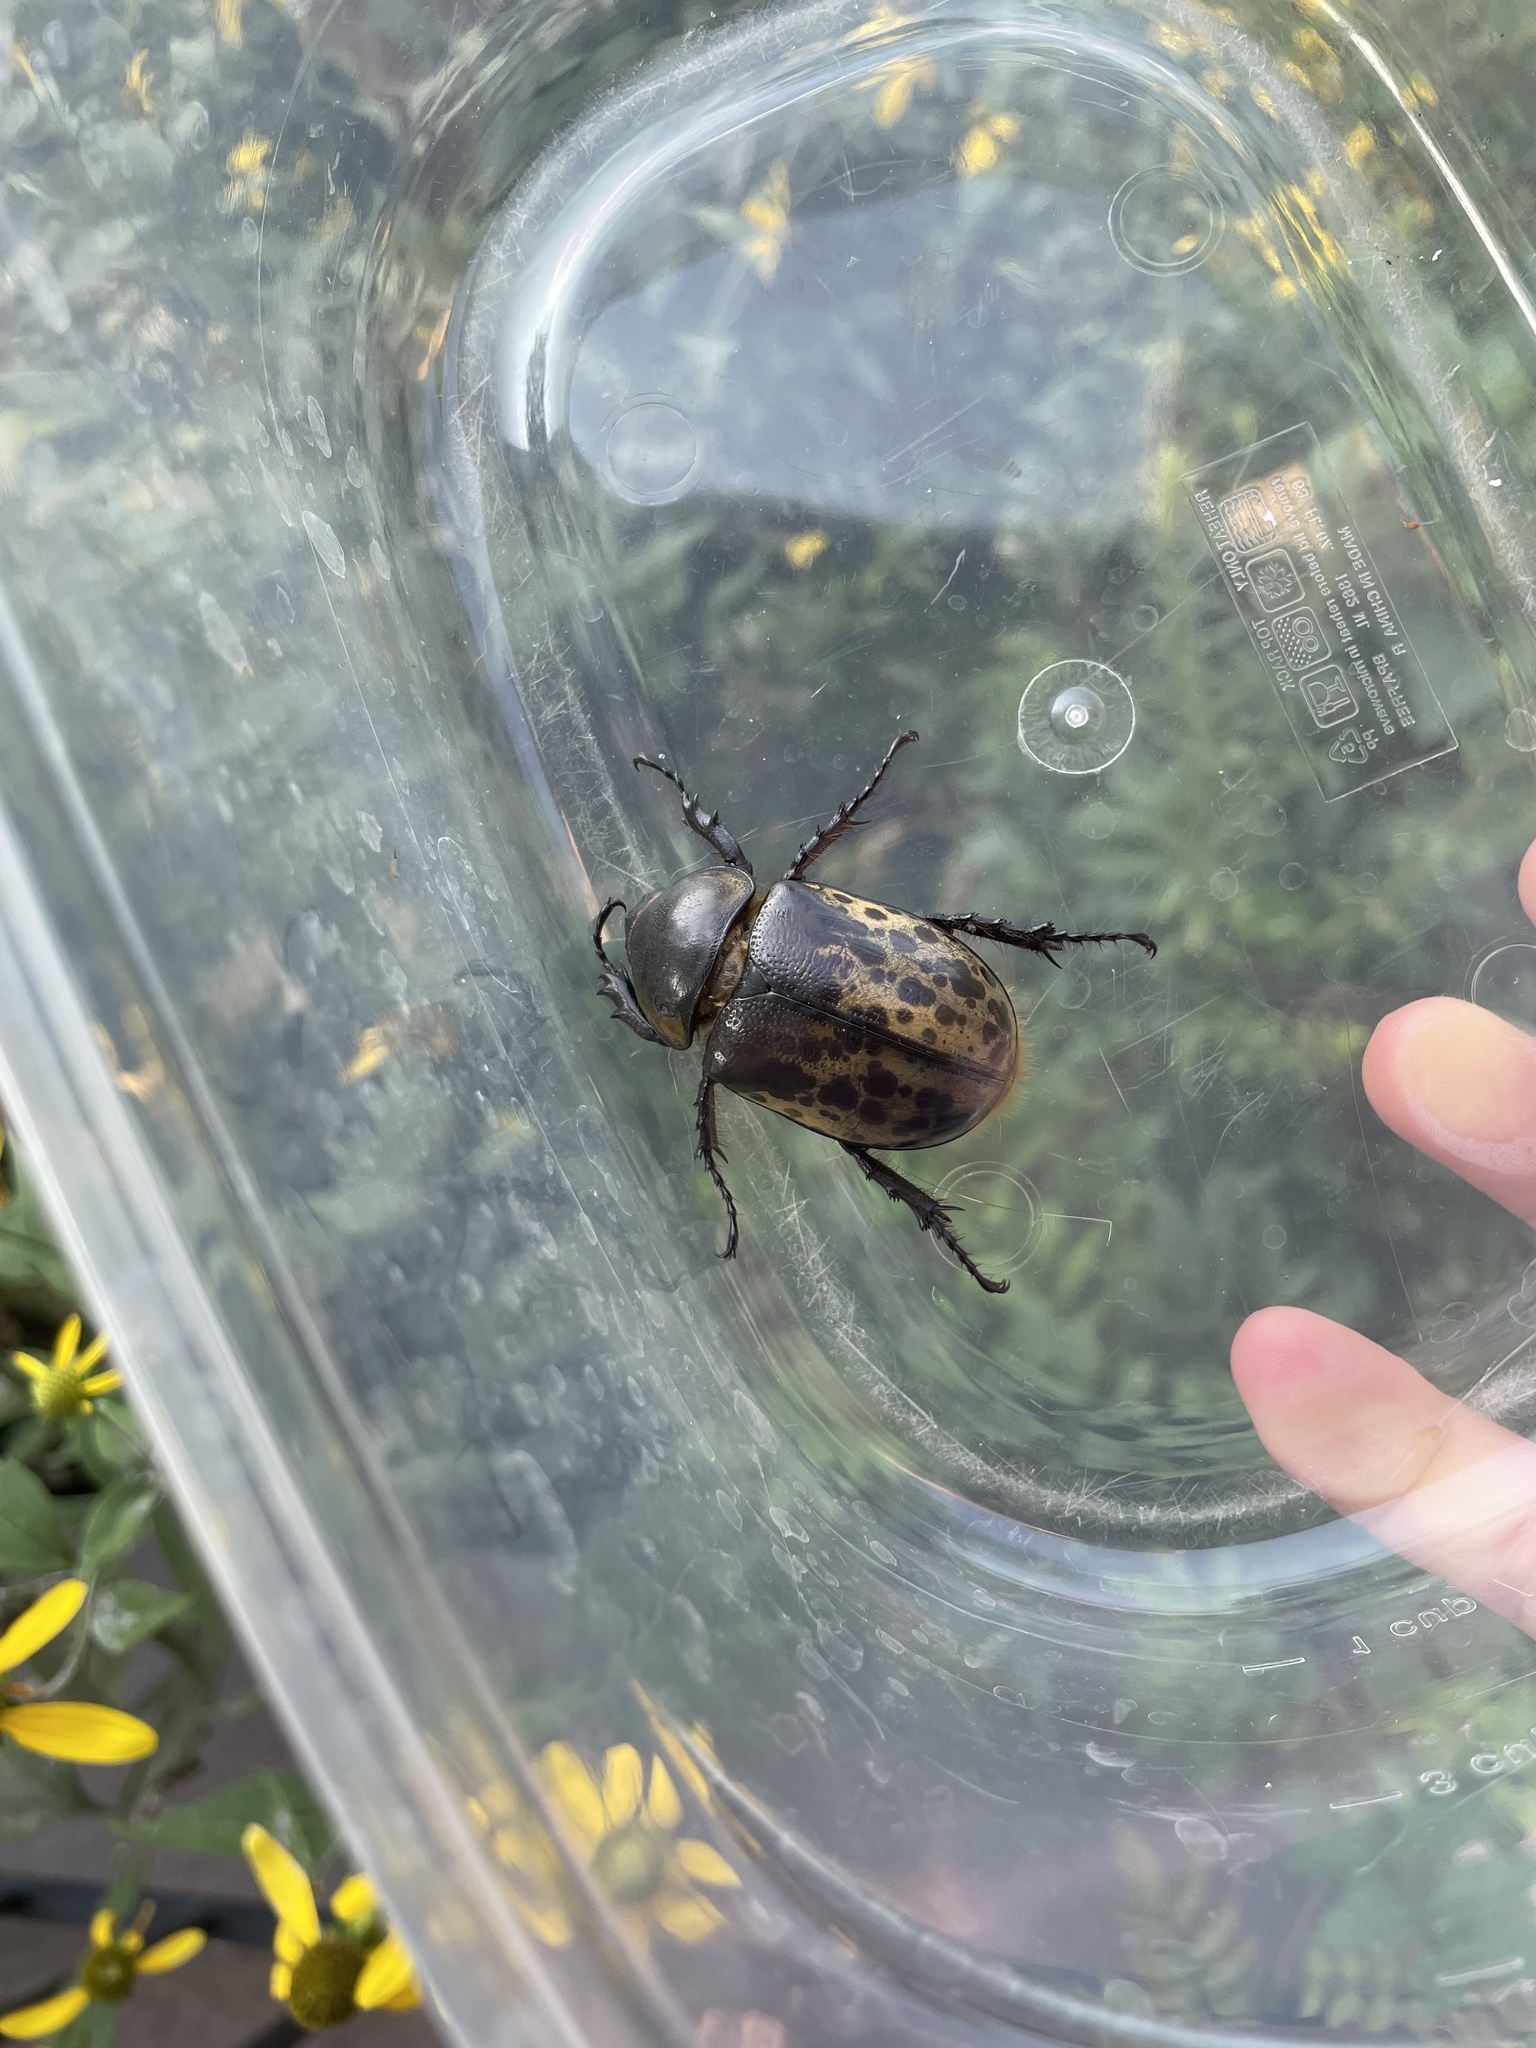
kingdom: Animalia
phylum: Arthropoda
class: Insecta
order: Coleoptera
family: Scarabaeidae
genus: Dynastes
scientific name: Dynastes tityus
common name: Eastern hercules beetle
